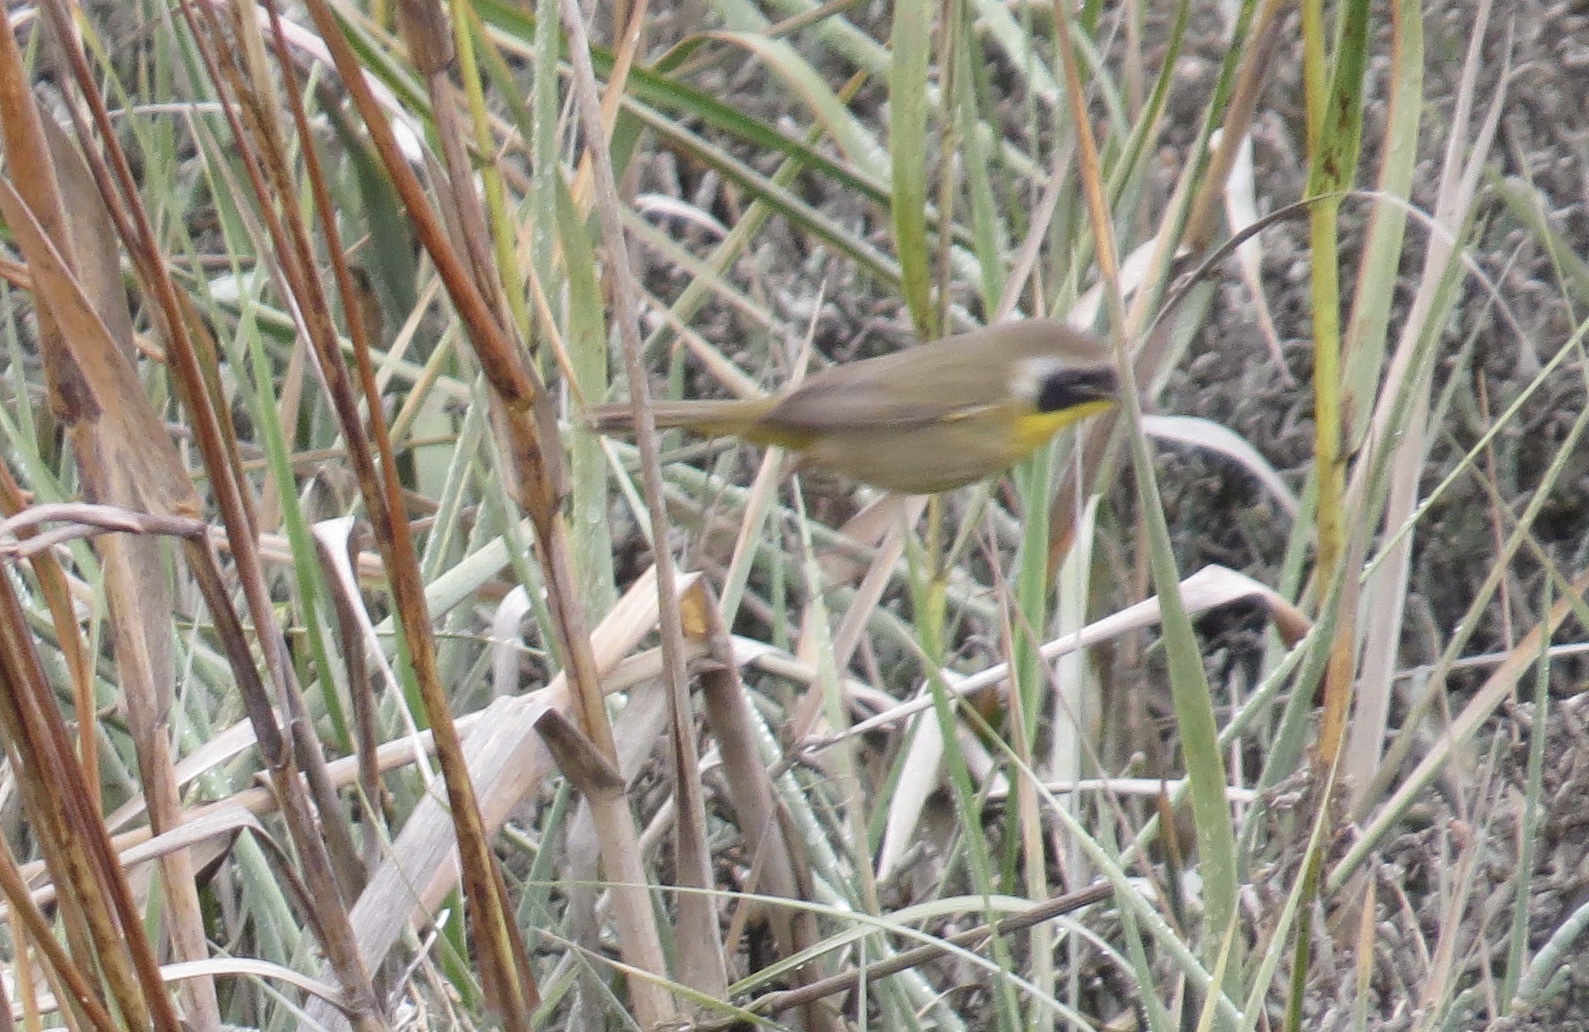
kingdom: Animalia
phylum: Chordata
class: Aves
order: Passeriformes
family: Parulidae
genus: Geothlypis
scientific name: Geothlypis trichas
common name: Common yellowthroat
